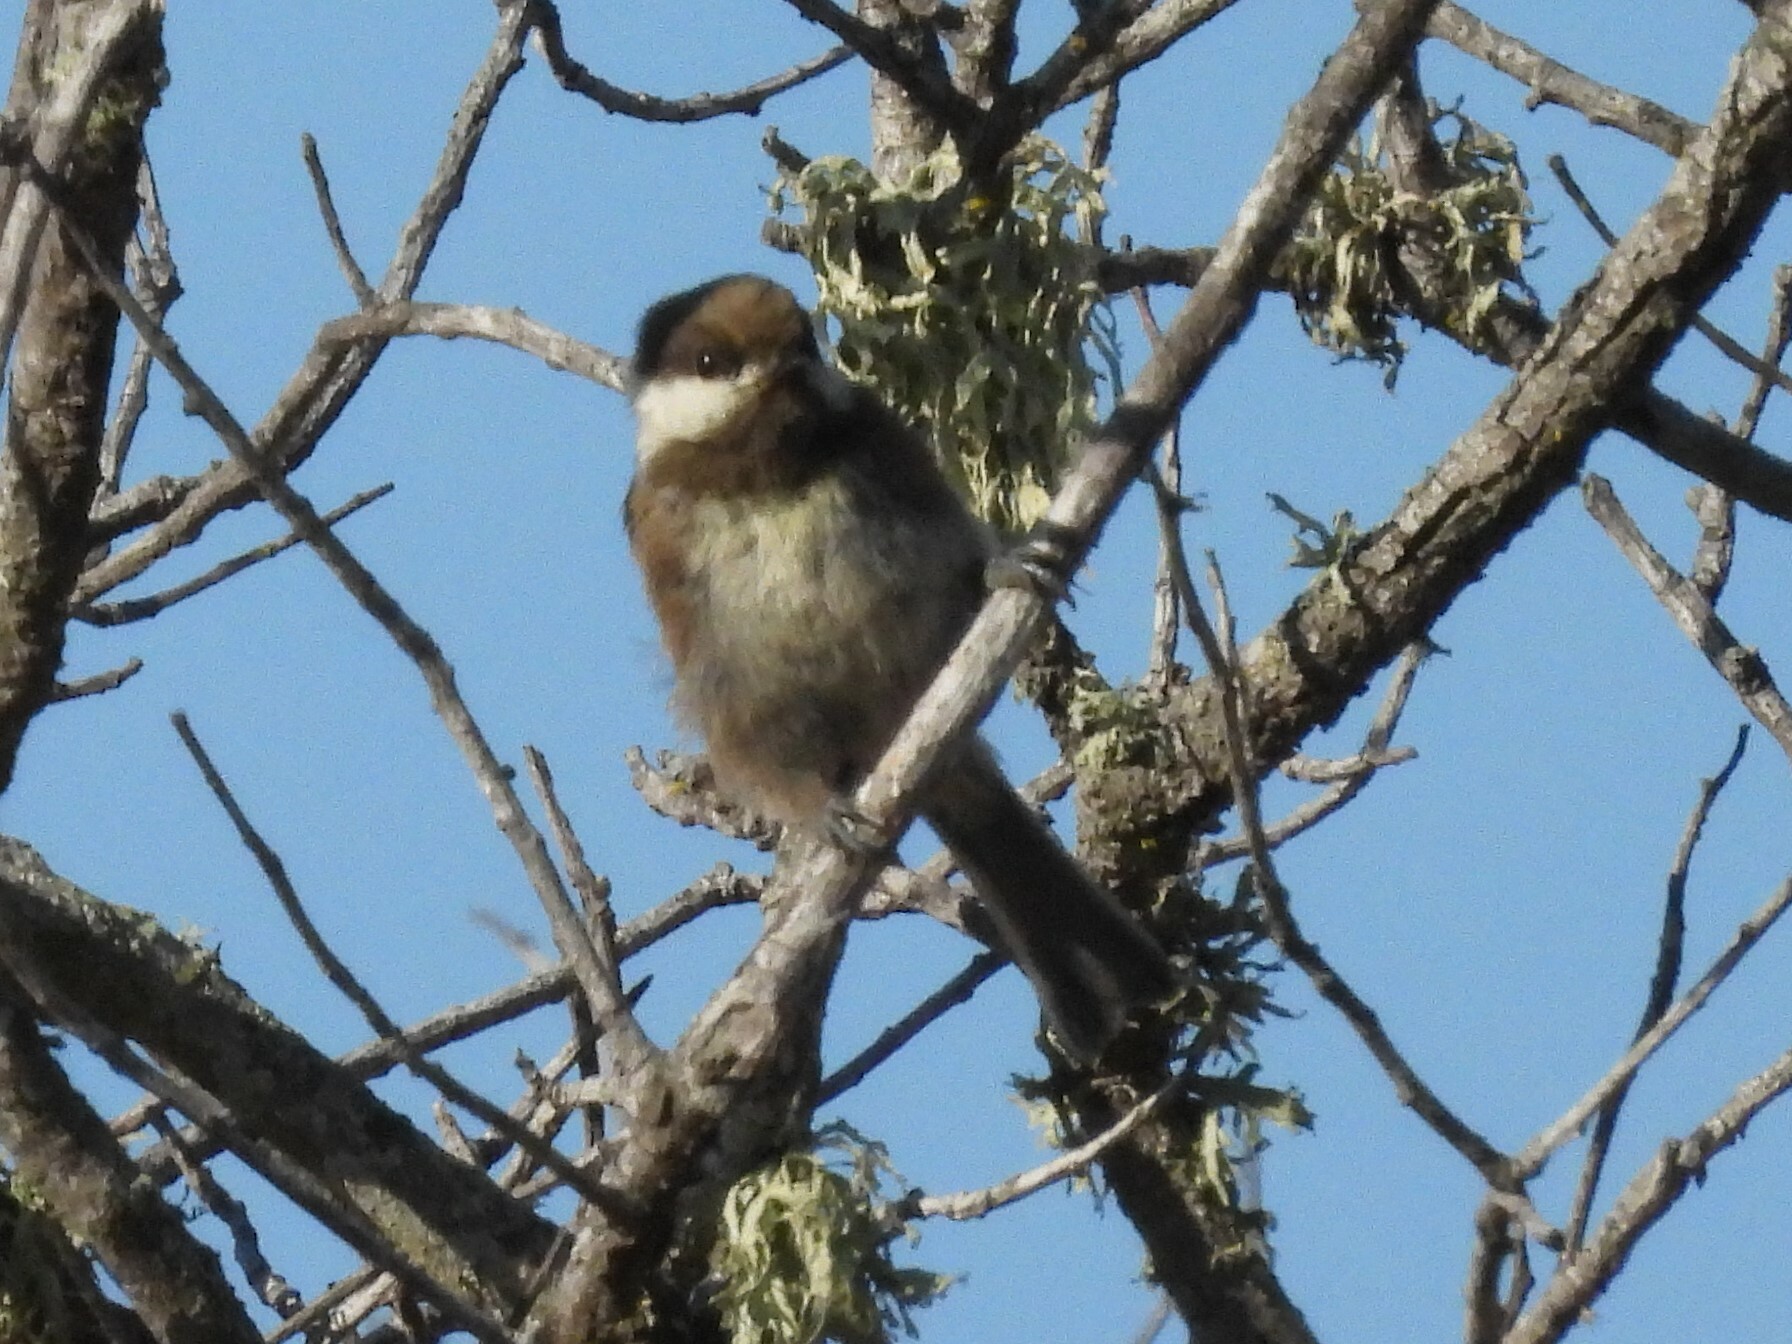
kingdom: Animalia
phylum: Chordata
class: Aves
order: Passeriformes
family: Paridae
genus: Poecile
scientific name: Poecile rufescens
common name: Chestnut-backed chickadee
